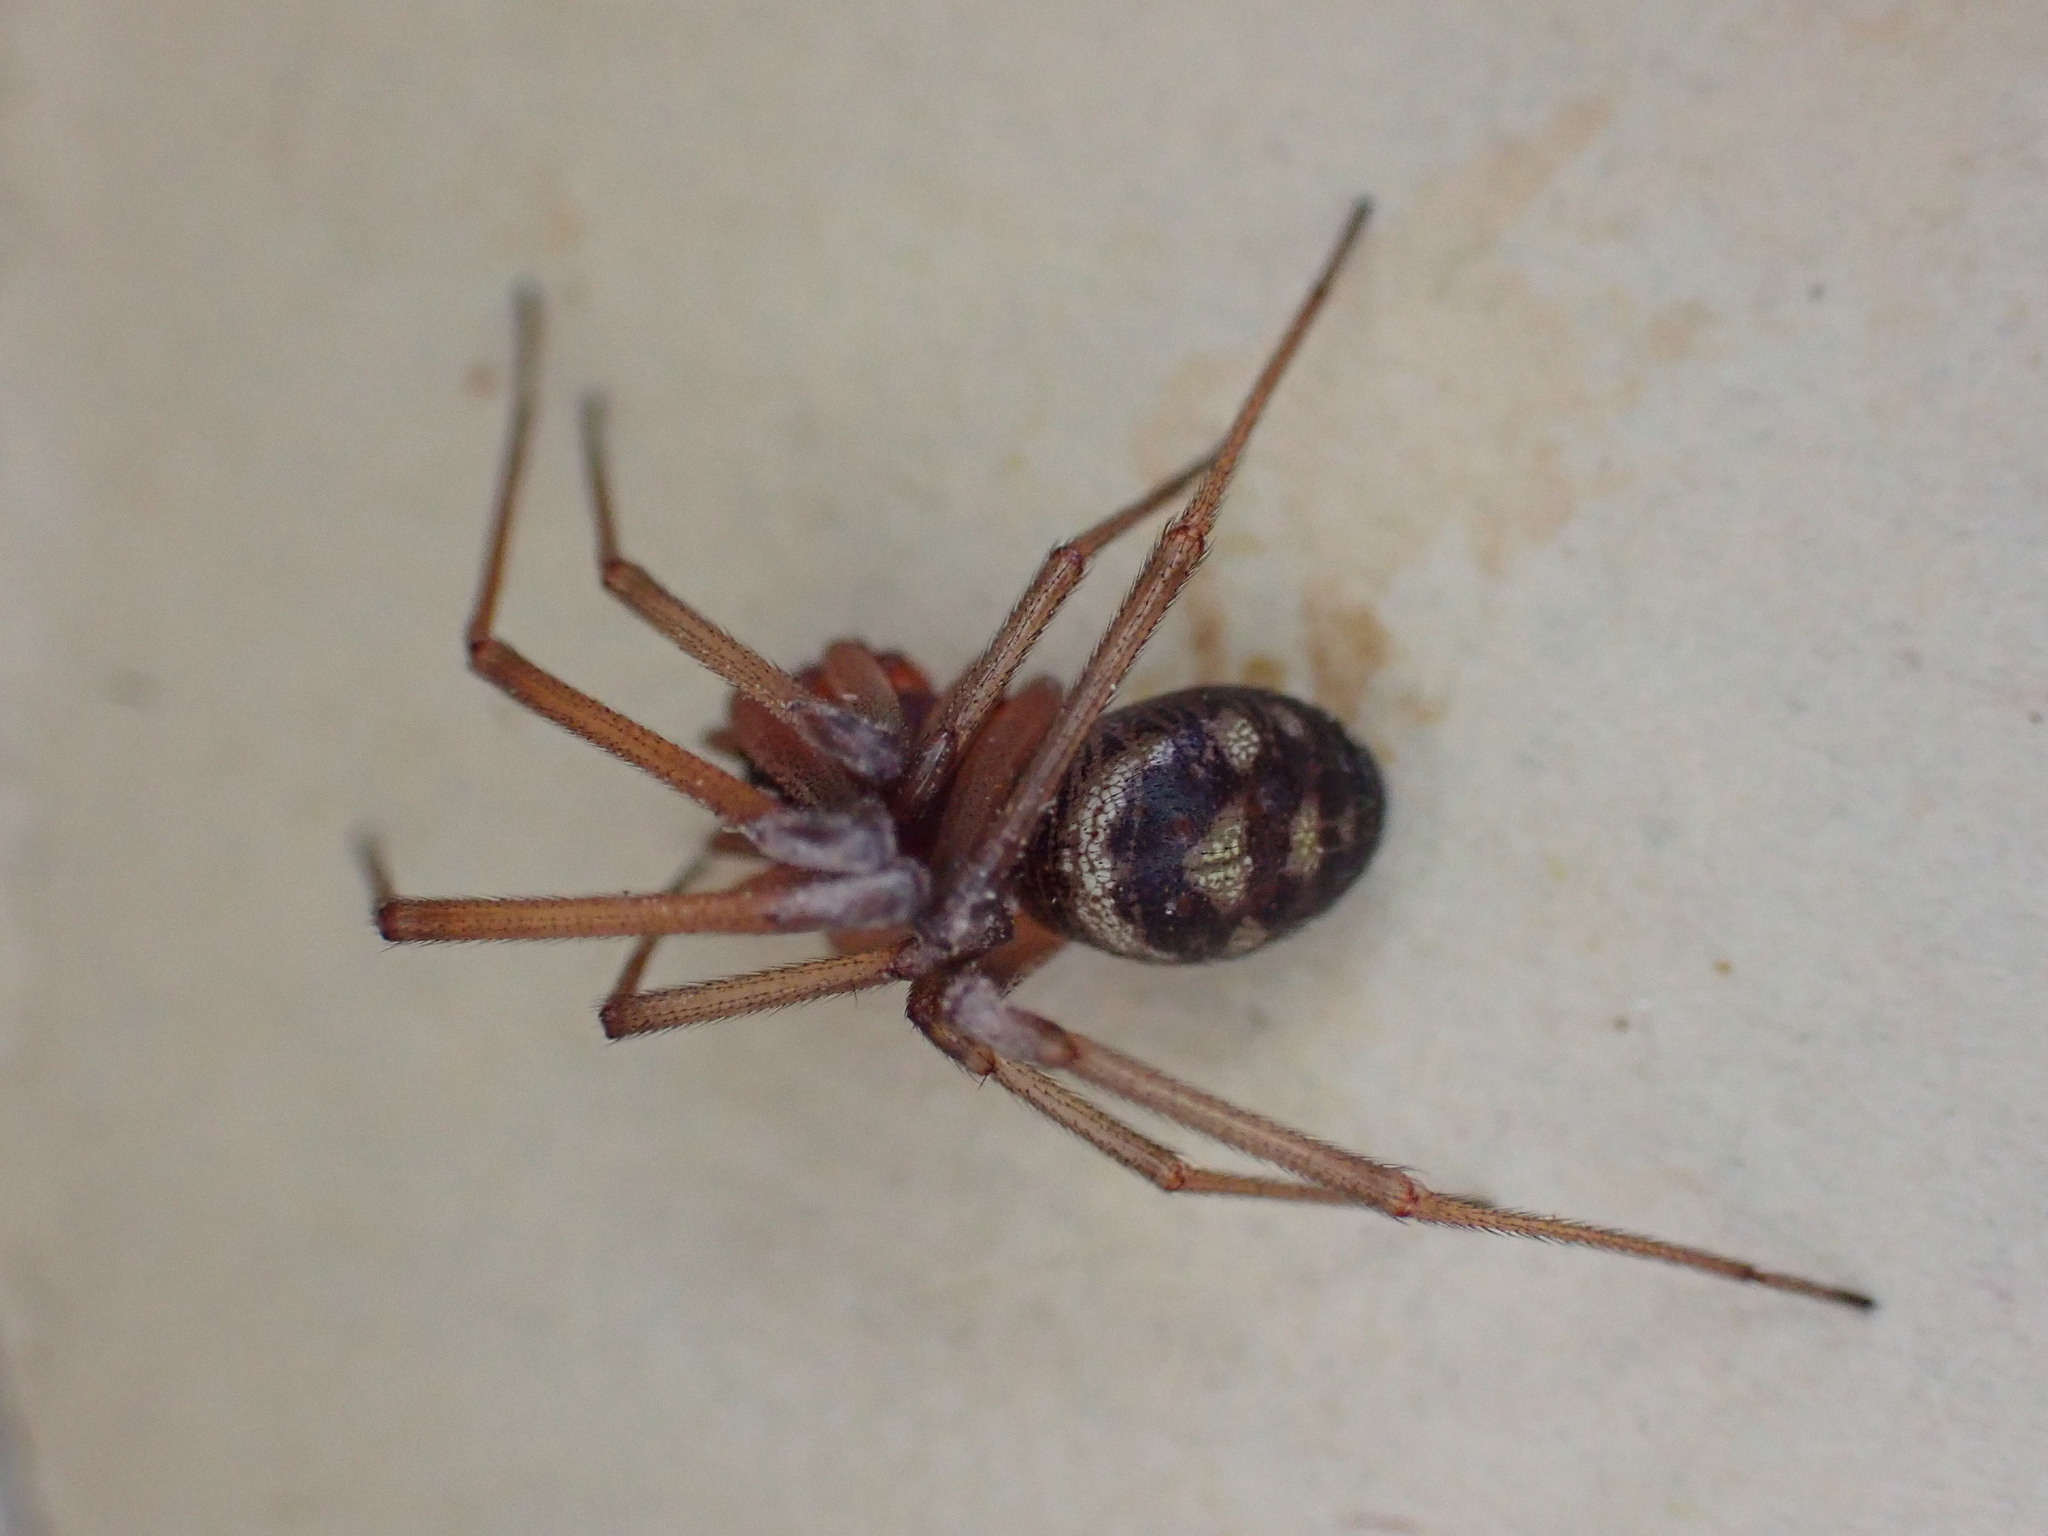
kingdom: Animalia
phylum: Arthropoda
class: Arachnida
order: Araneae
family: Theridiidae
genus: Steatoda
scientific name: Steatoda grossa
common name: False black widow
